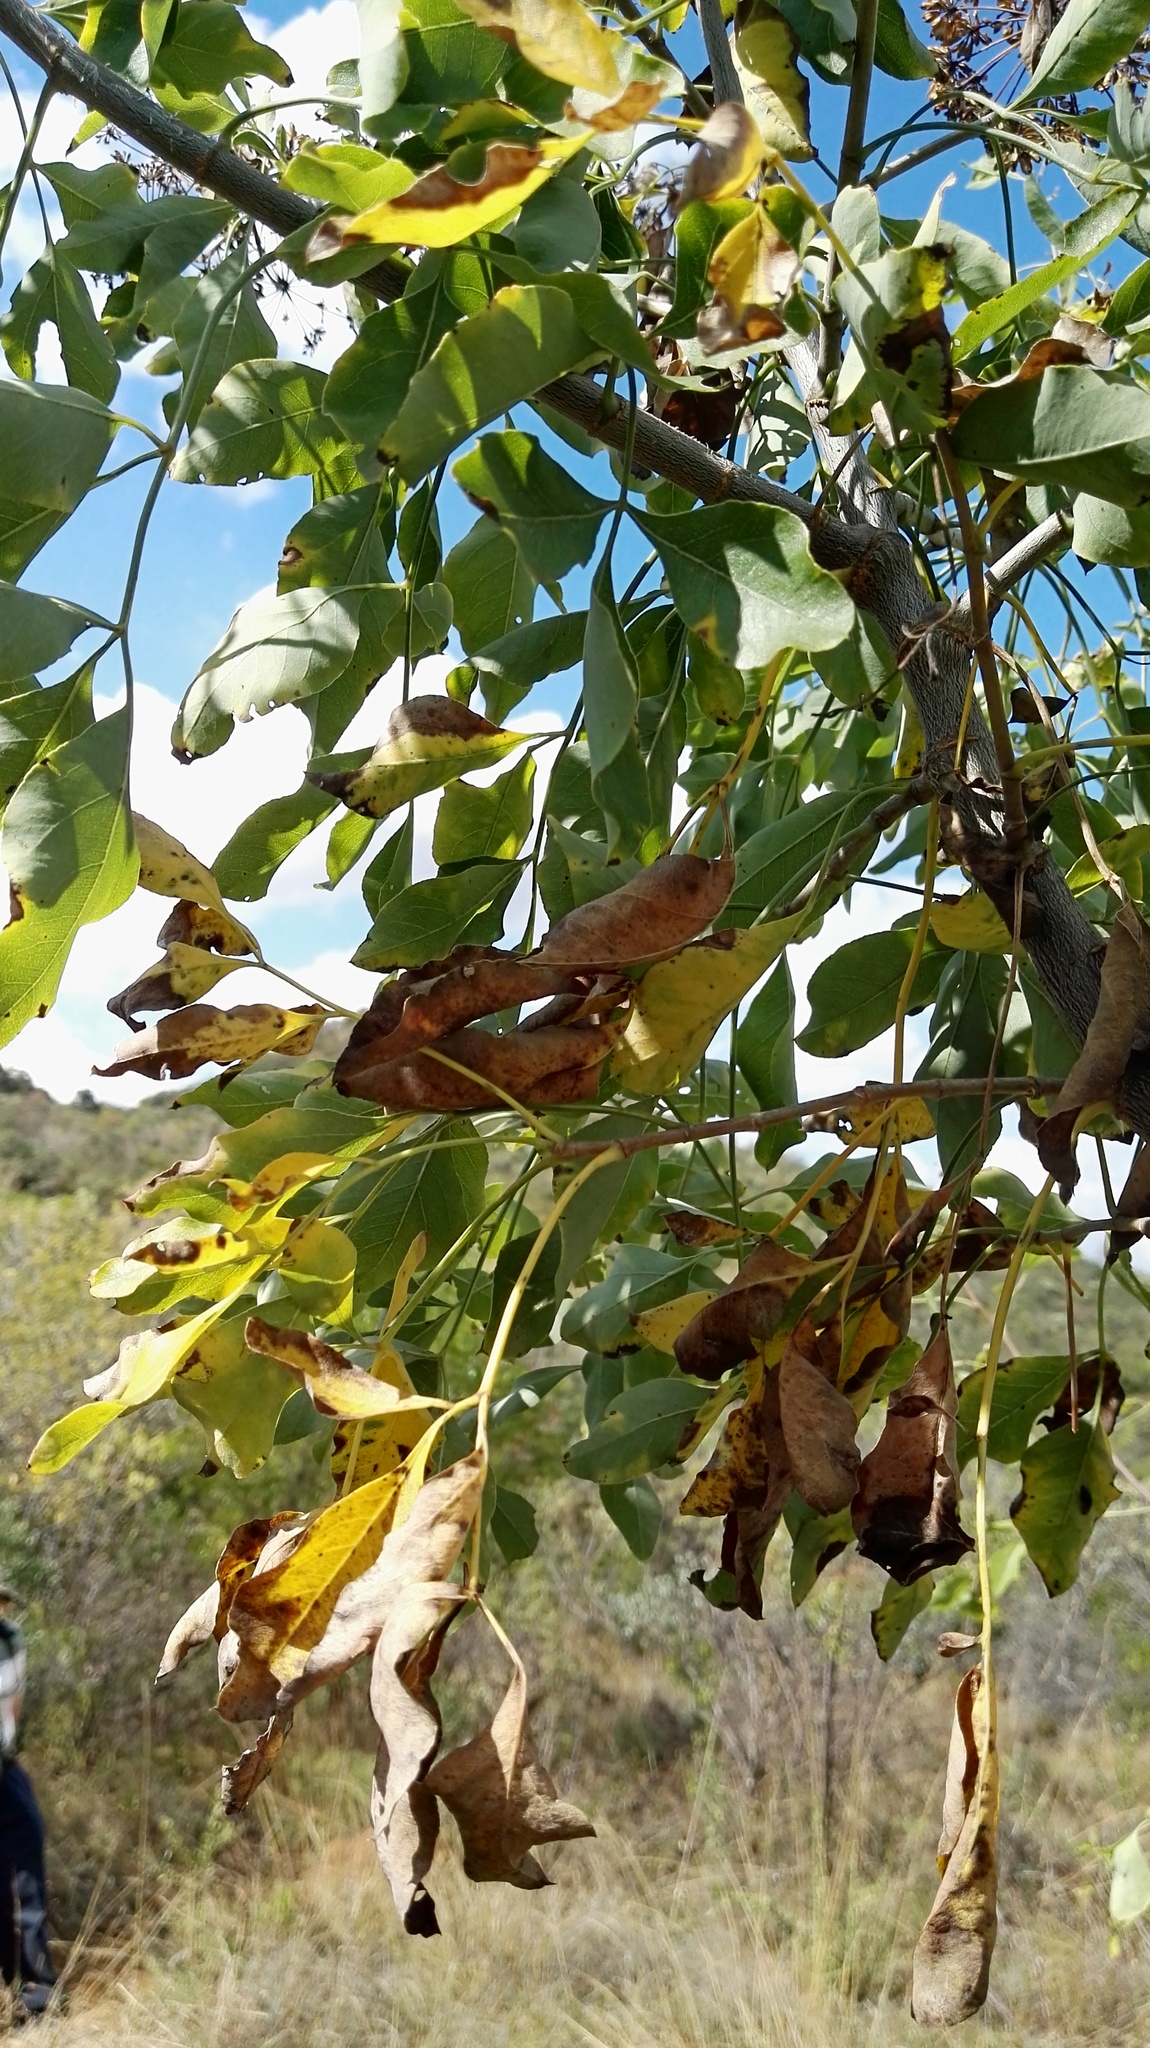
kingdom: Plantae
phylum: Tracheophyta
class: Magnoliopsida
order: Apiales
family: Apiaceae
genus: Heteromorpha
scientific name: Heteromorpha arborescens
